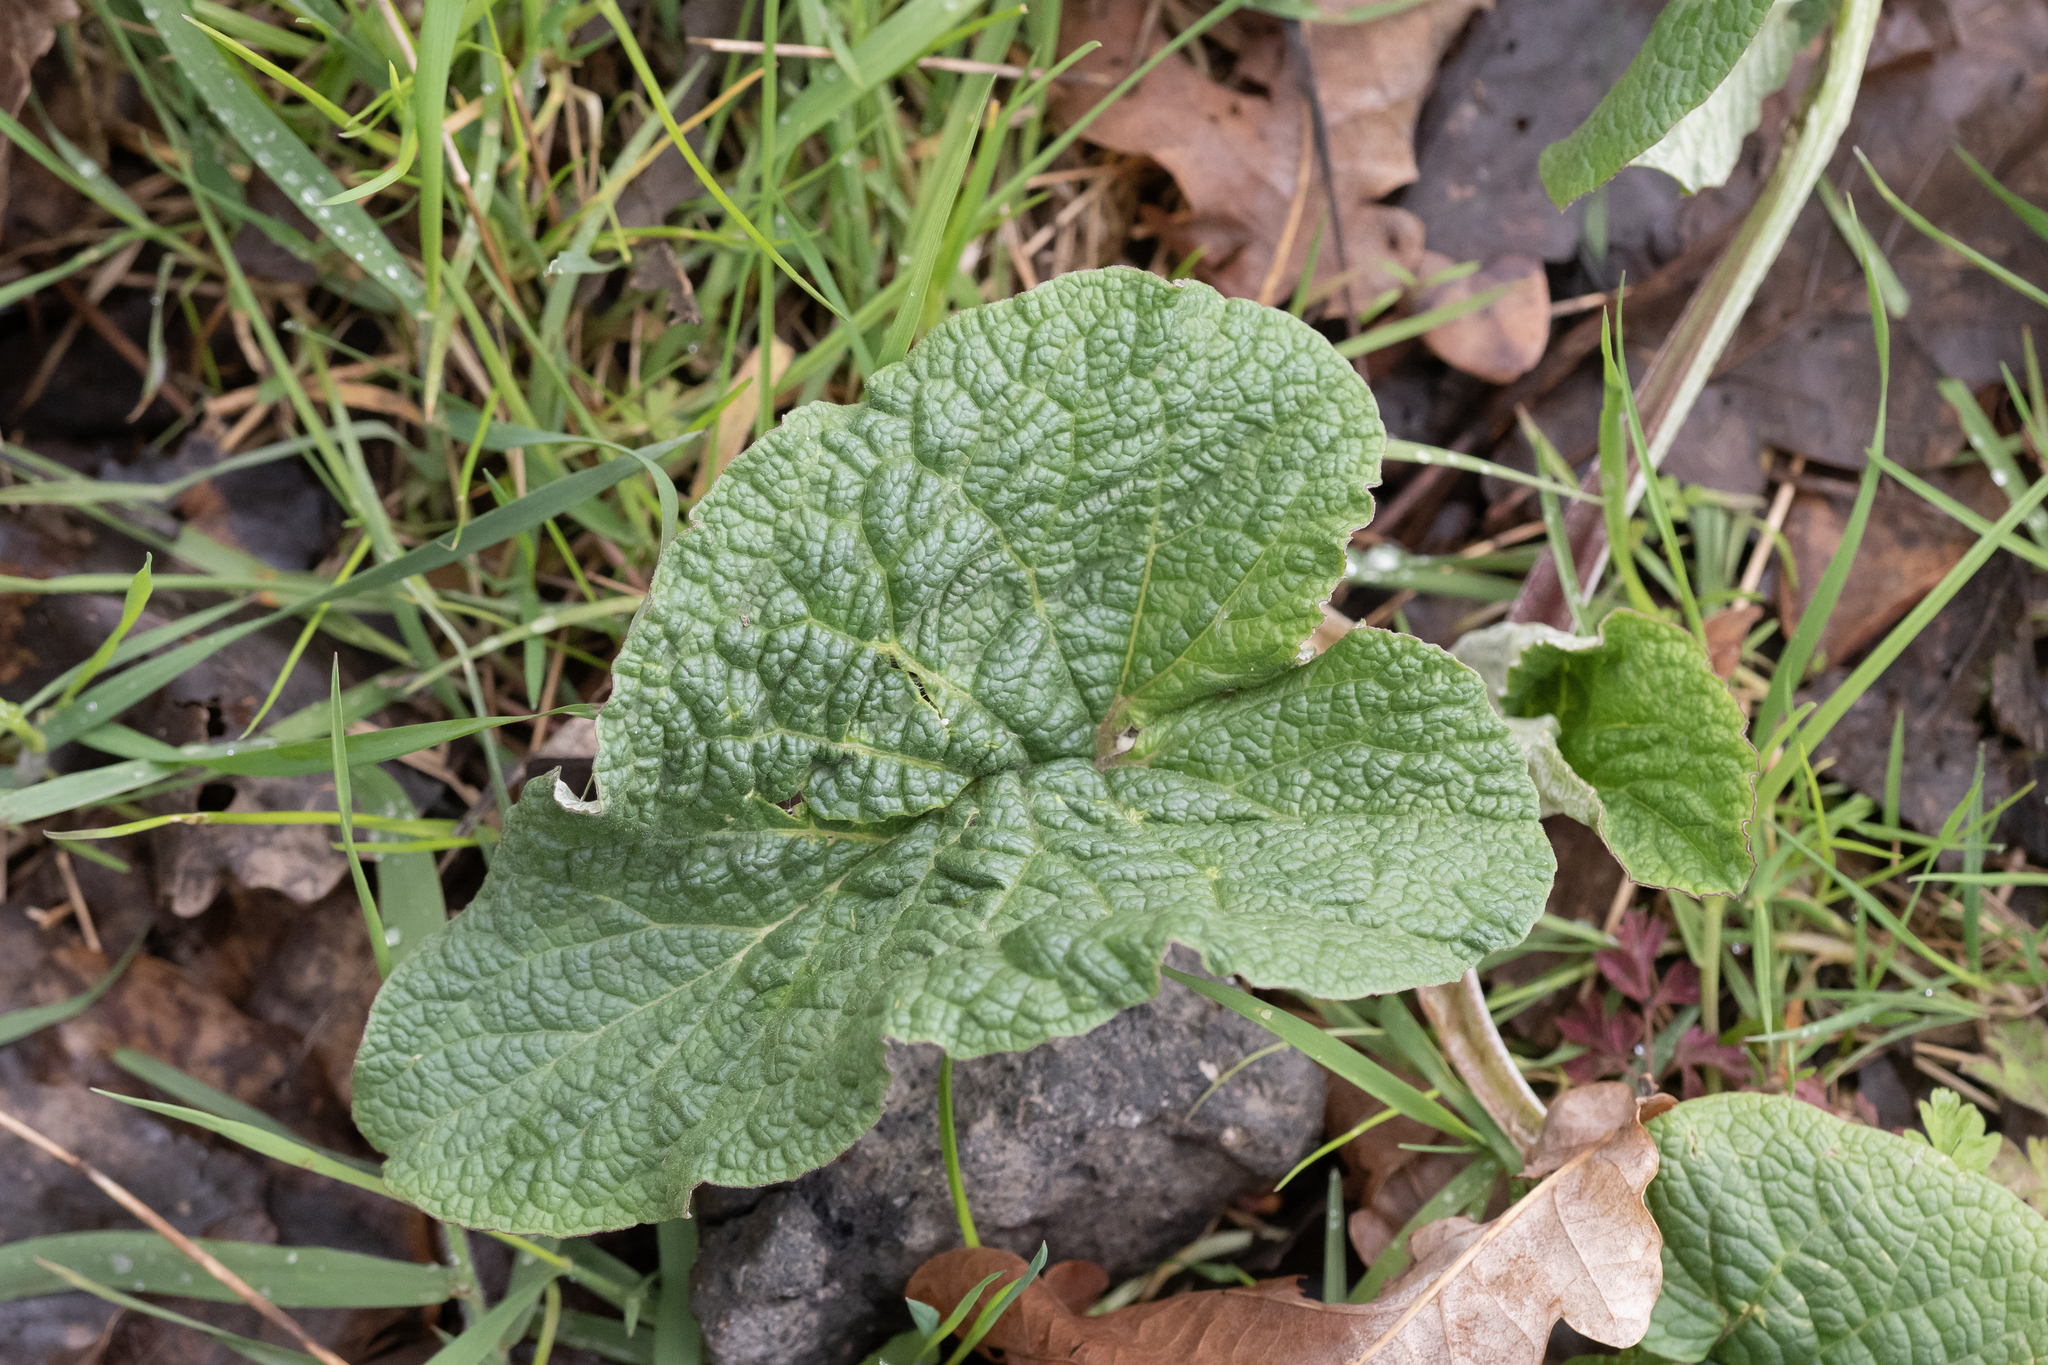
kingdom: Plantae
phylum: Tracheophyta
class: Magnoliopsida
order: Asterales
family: Asteraceae
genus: Arctium
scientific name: Arctium
